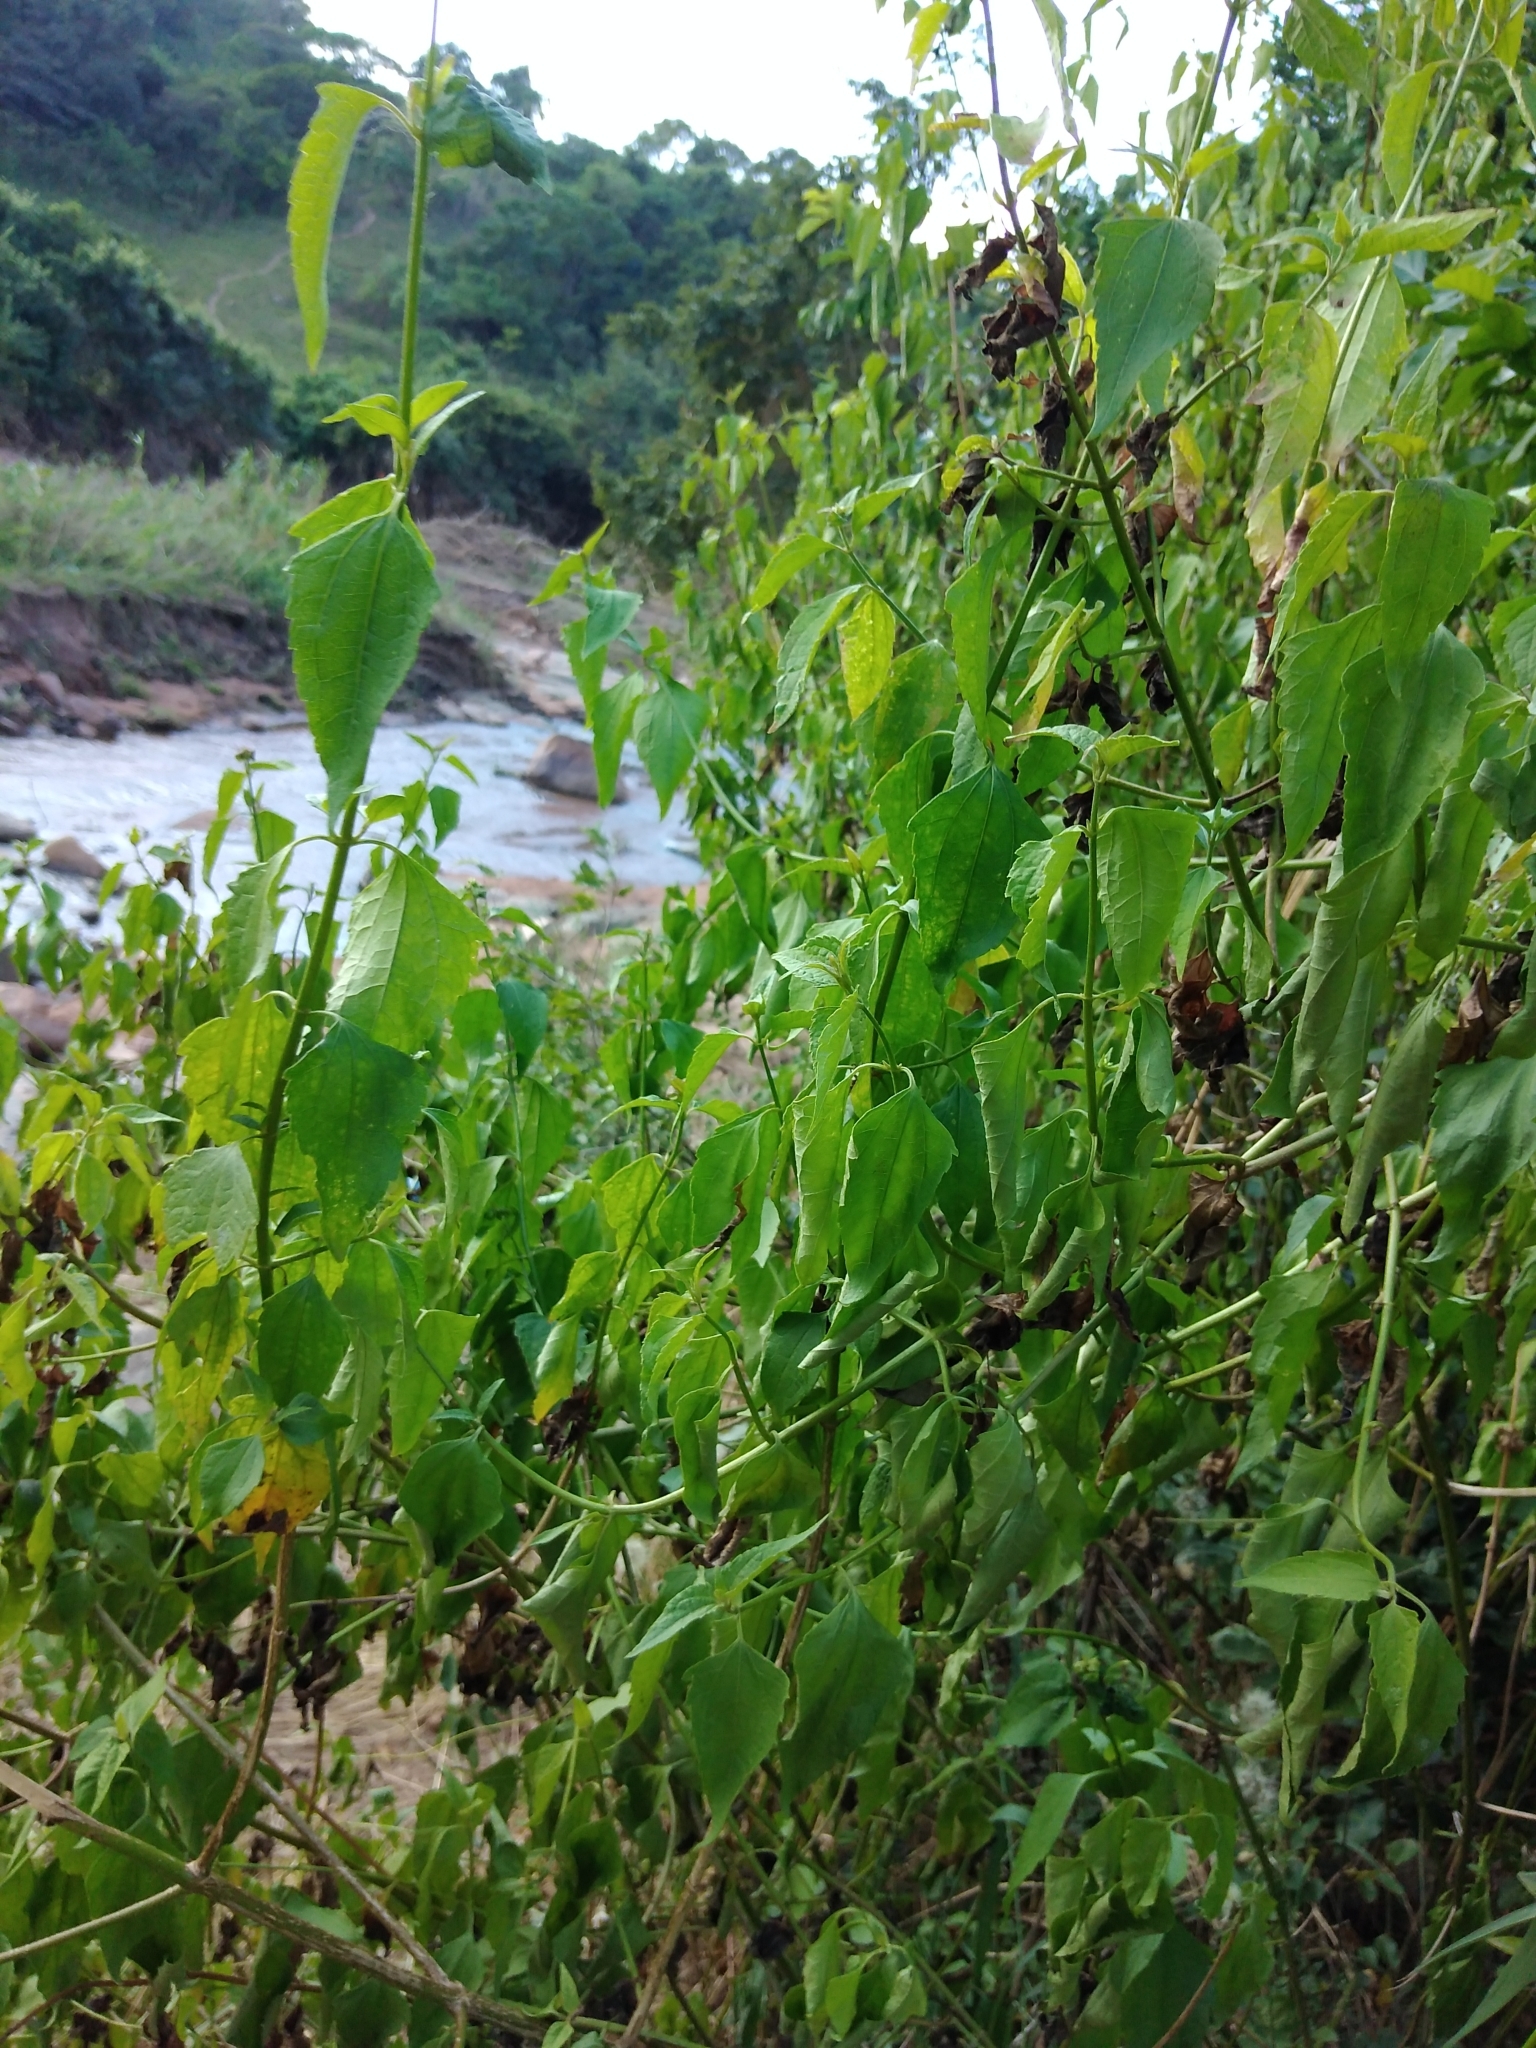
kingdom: Plantae
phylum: Tracheophyta
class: Magnoliopsida
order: Asterales
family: Asteraceae
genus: Chromolaena
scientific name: Chromolaena odorata
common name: Siamweed
